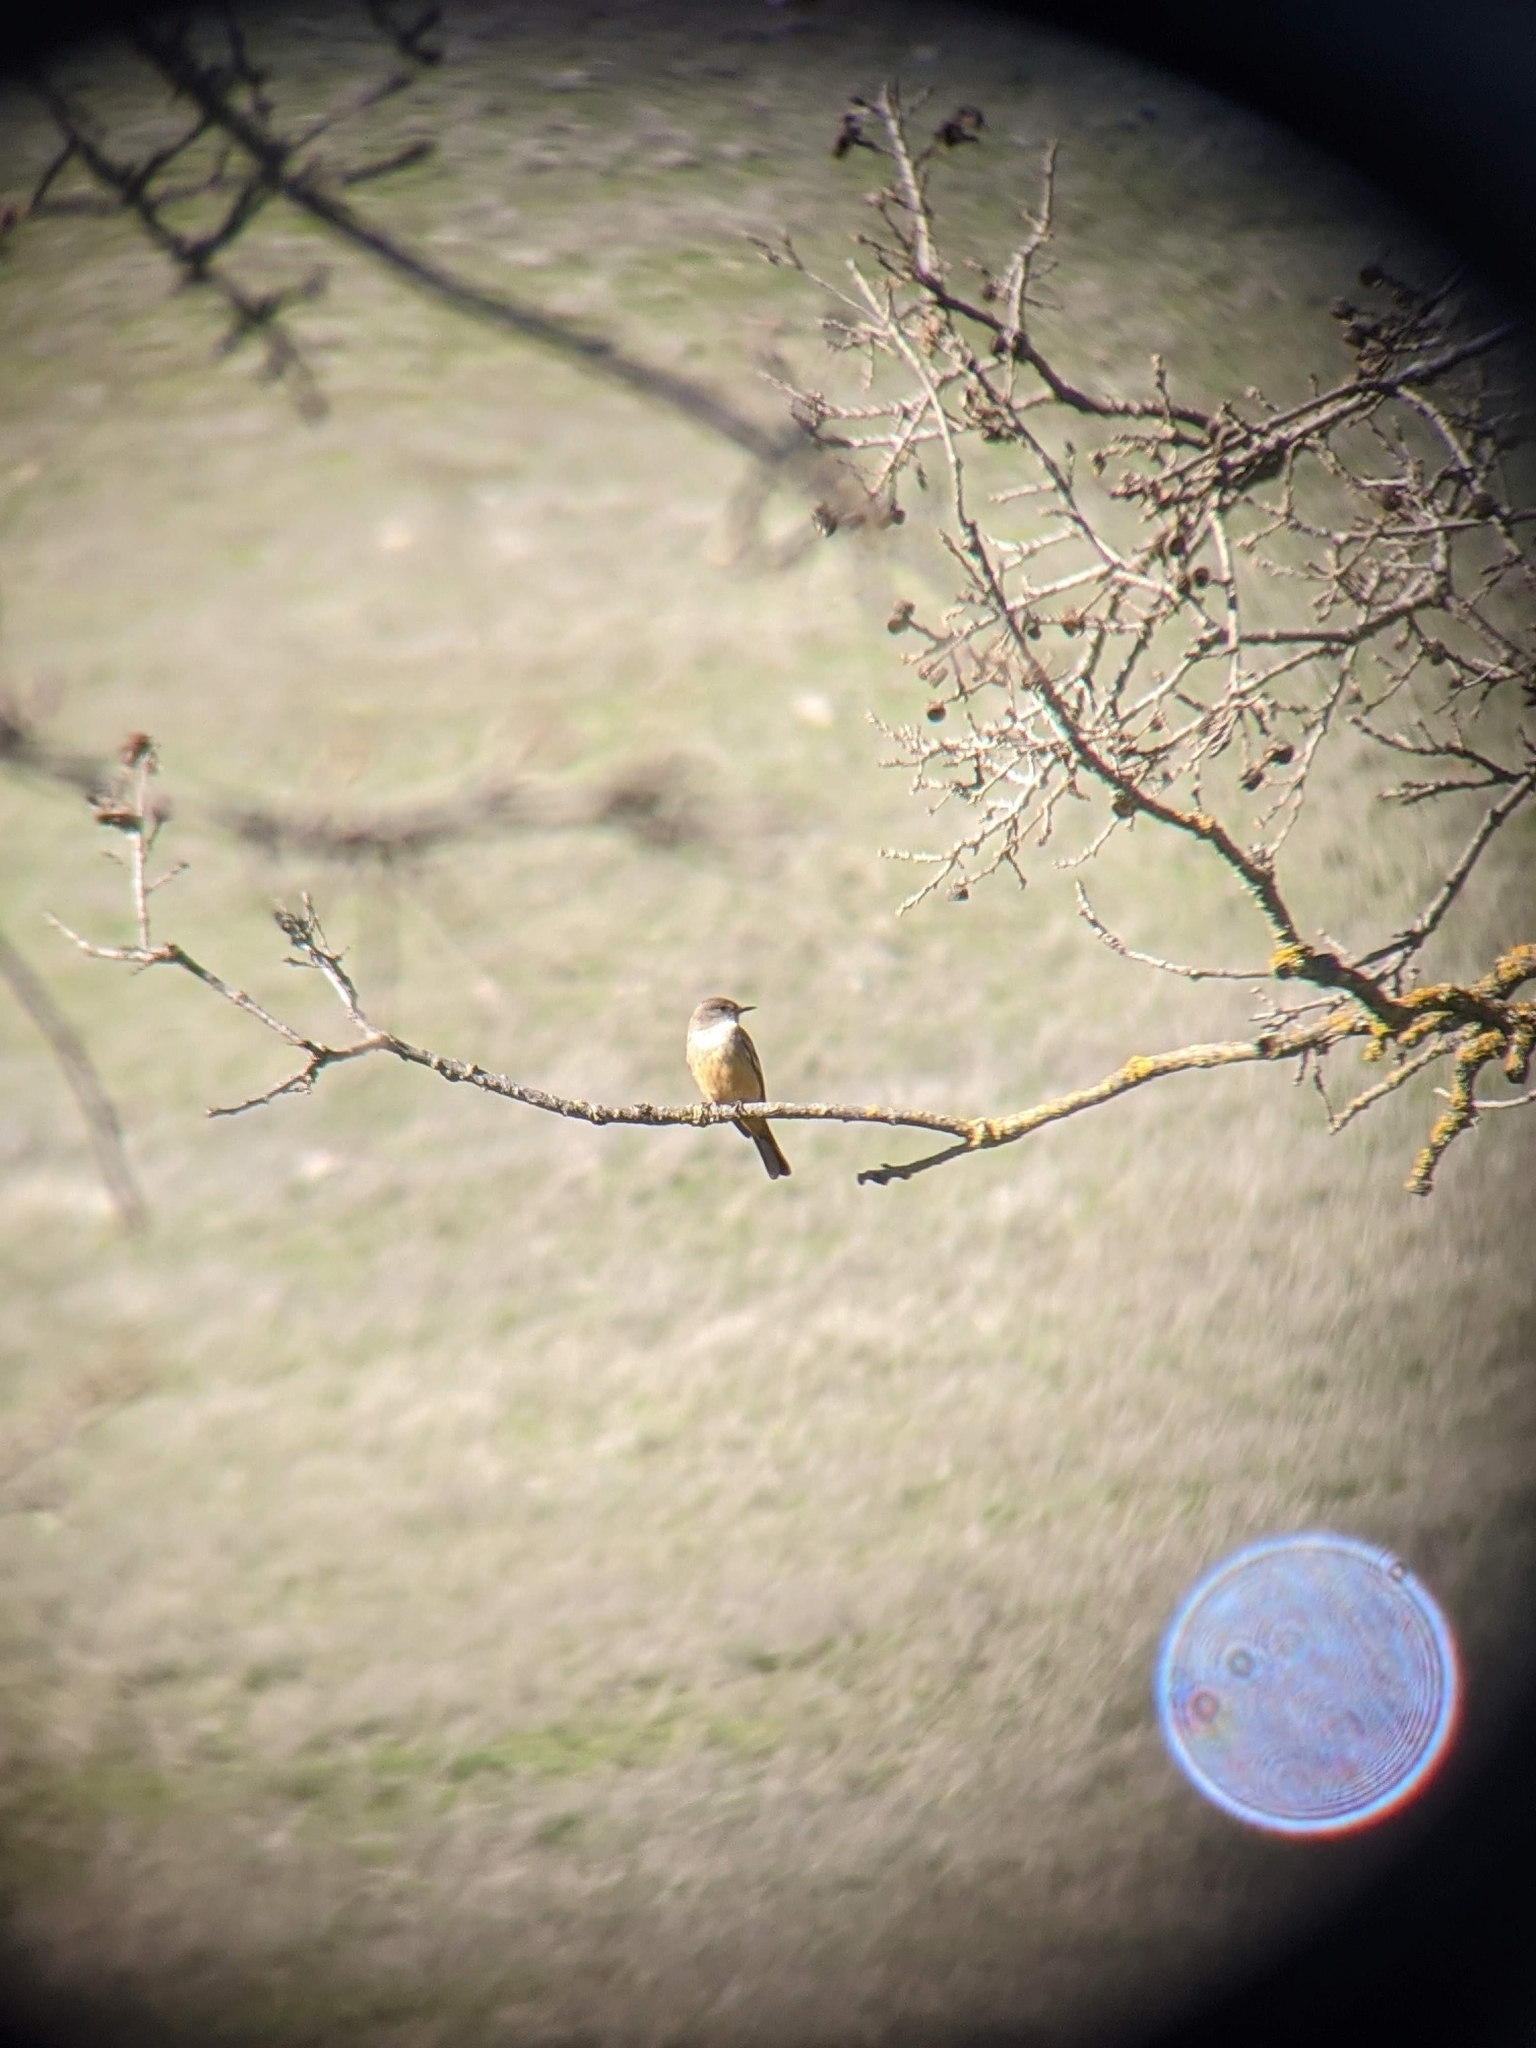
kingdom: Animalia
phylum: Chordata
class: Aves
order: Passeriformes
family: Tyrannidae
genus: Sayornis
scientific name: Sayornis saya
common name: Say's phoebe
